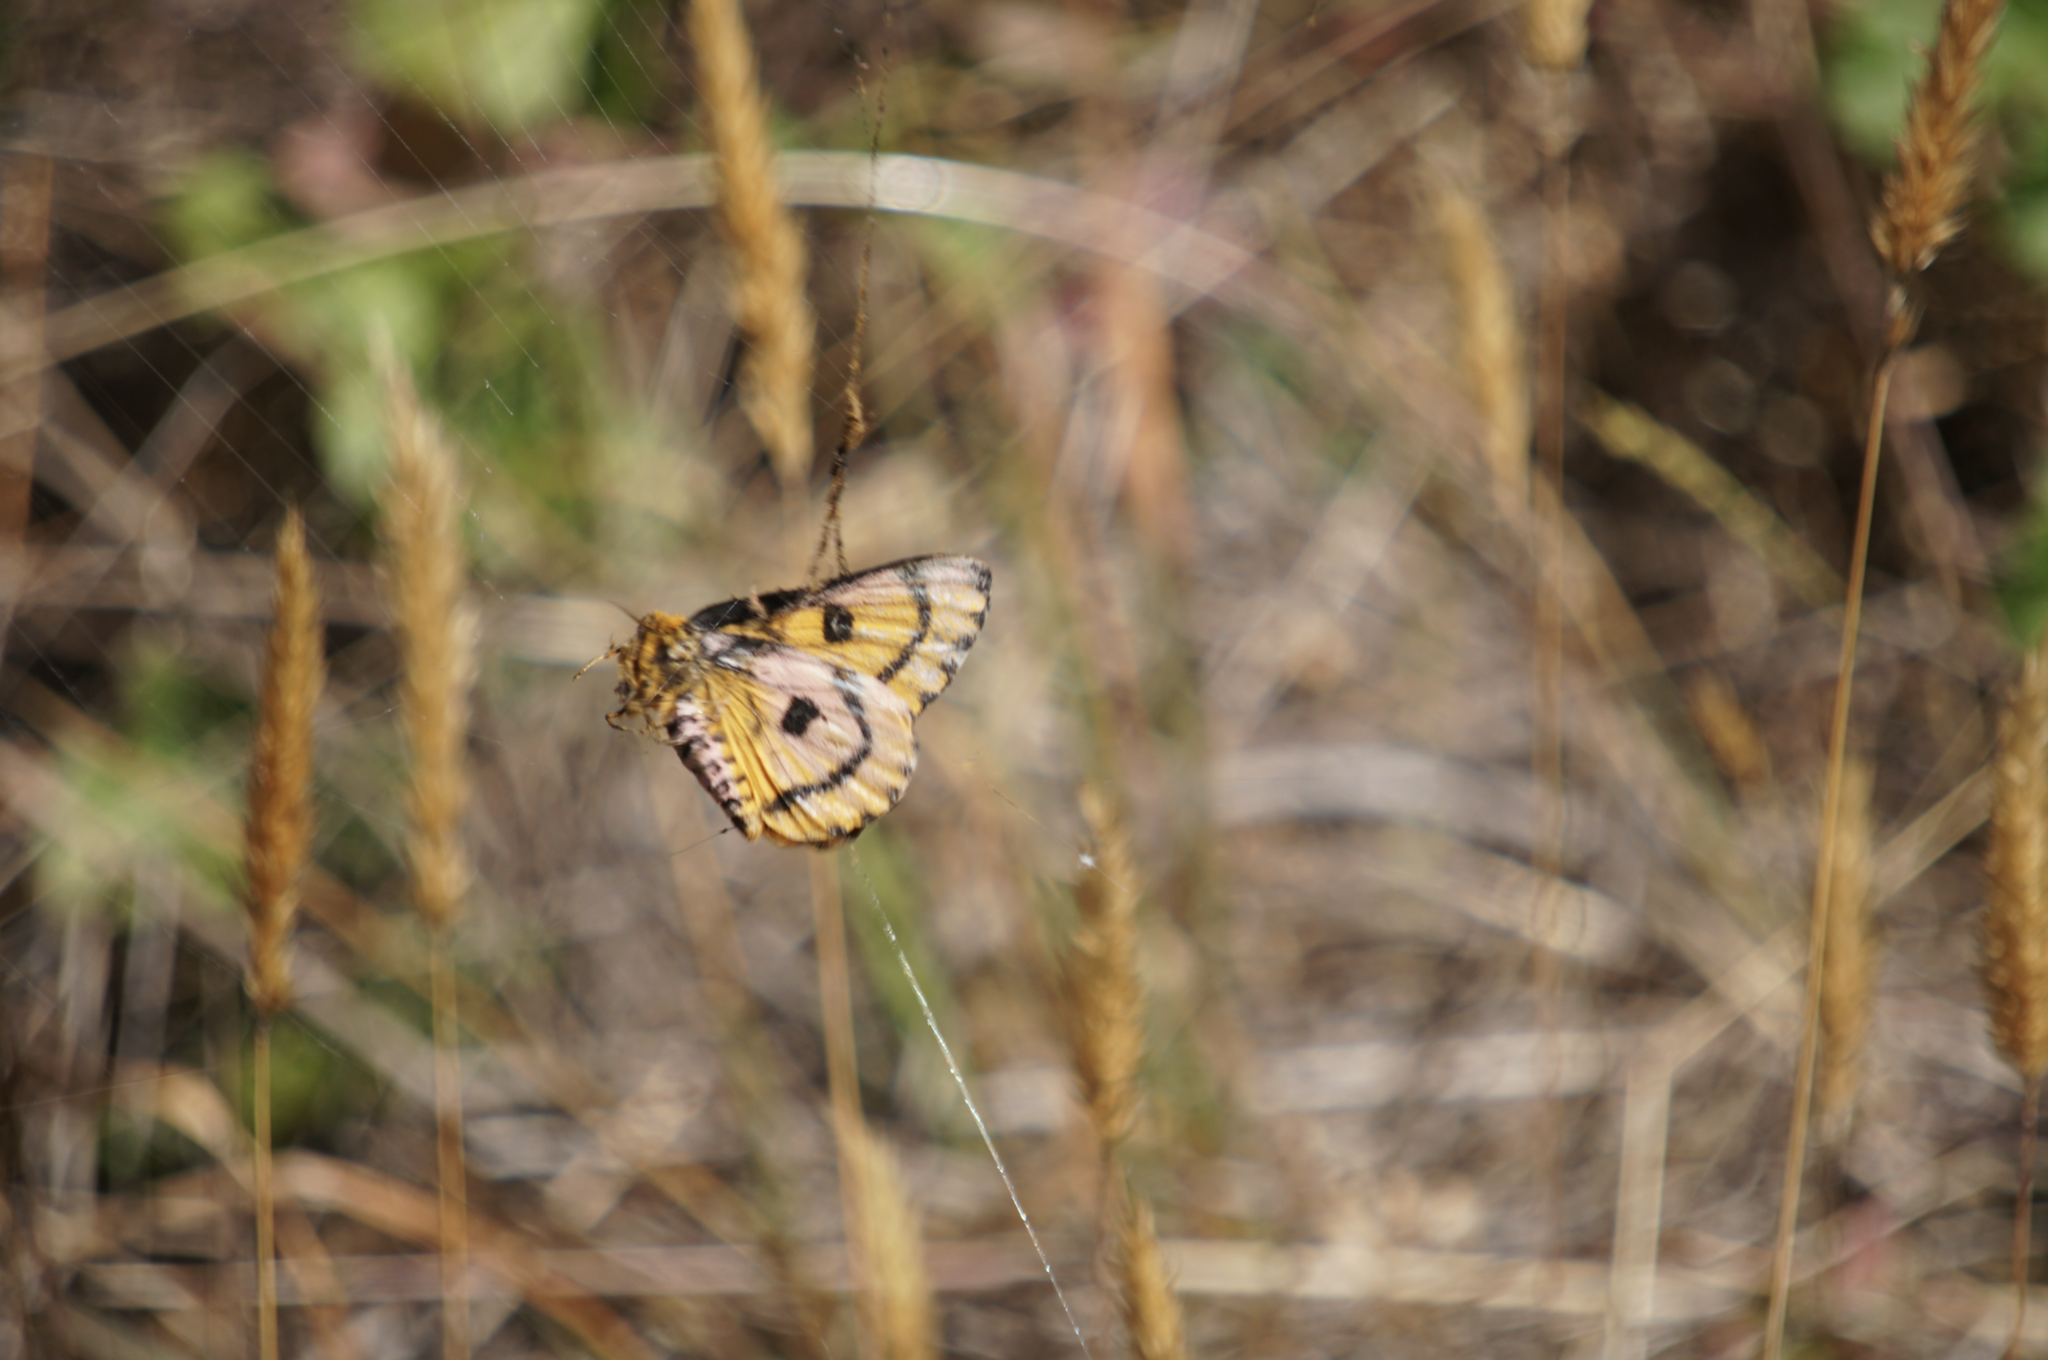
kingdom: Animalia
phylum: Arthropoda
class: Insecta
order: Lepidoptera
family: Saturniidae
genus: Hemileuca
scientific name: Hemileuca eglanterina
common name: Western sheepmoth
